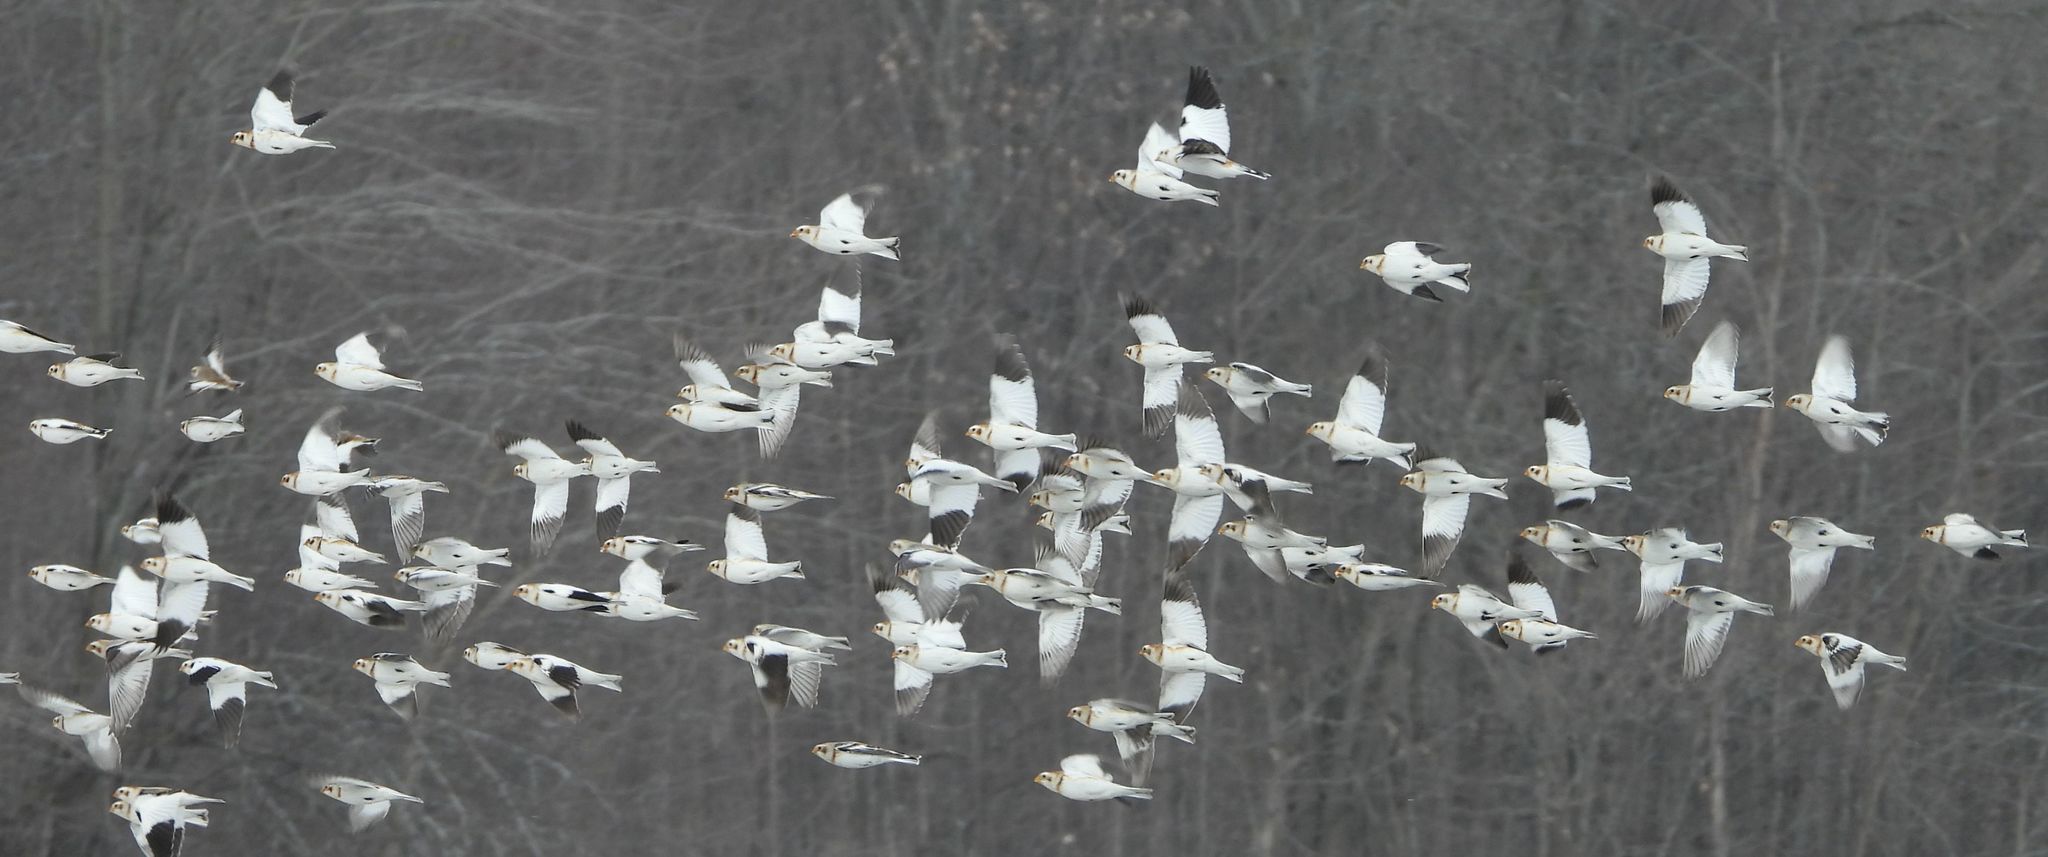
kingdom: Animalia
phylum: Chordata
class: Aves
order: Passeriformes
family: Calcariidae
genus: Plectrophenax
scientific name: Plectrophenax nivalis
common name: Snow bunting
